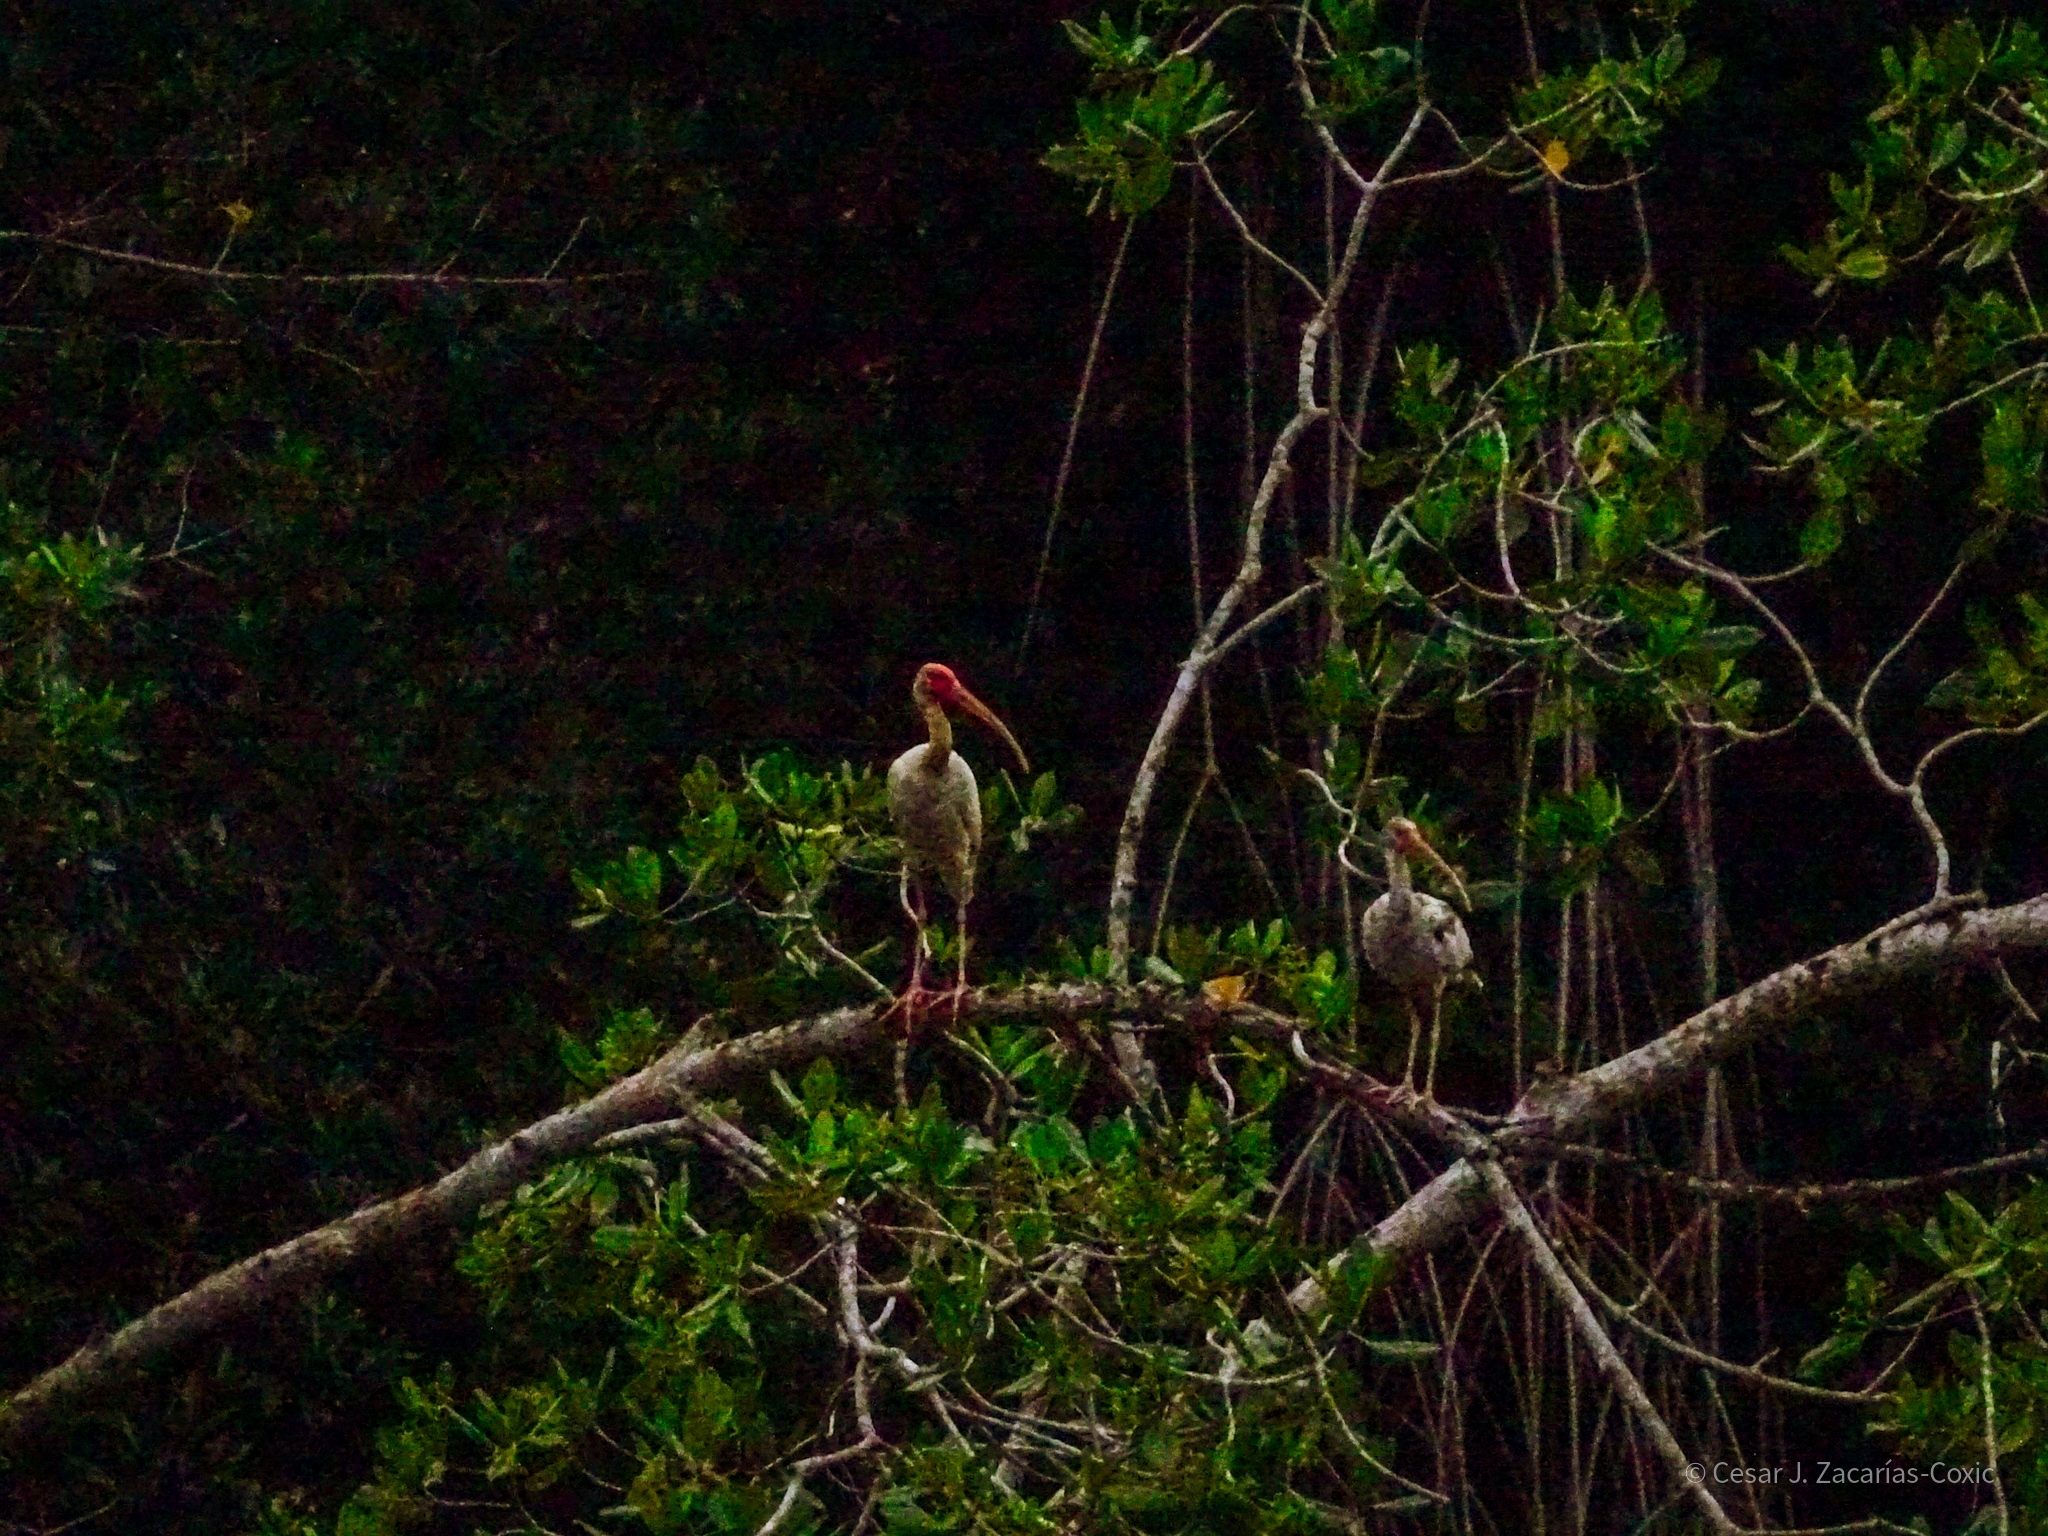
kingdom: Animalia
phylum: Chordata
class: Aves
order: Pelecaniformes
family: Threskiornithidae
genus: Eudocimus
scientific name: Eudocimus albus
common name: White ibis
